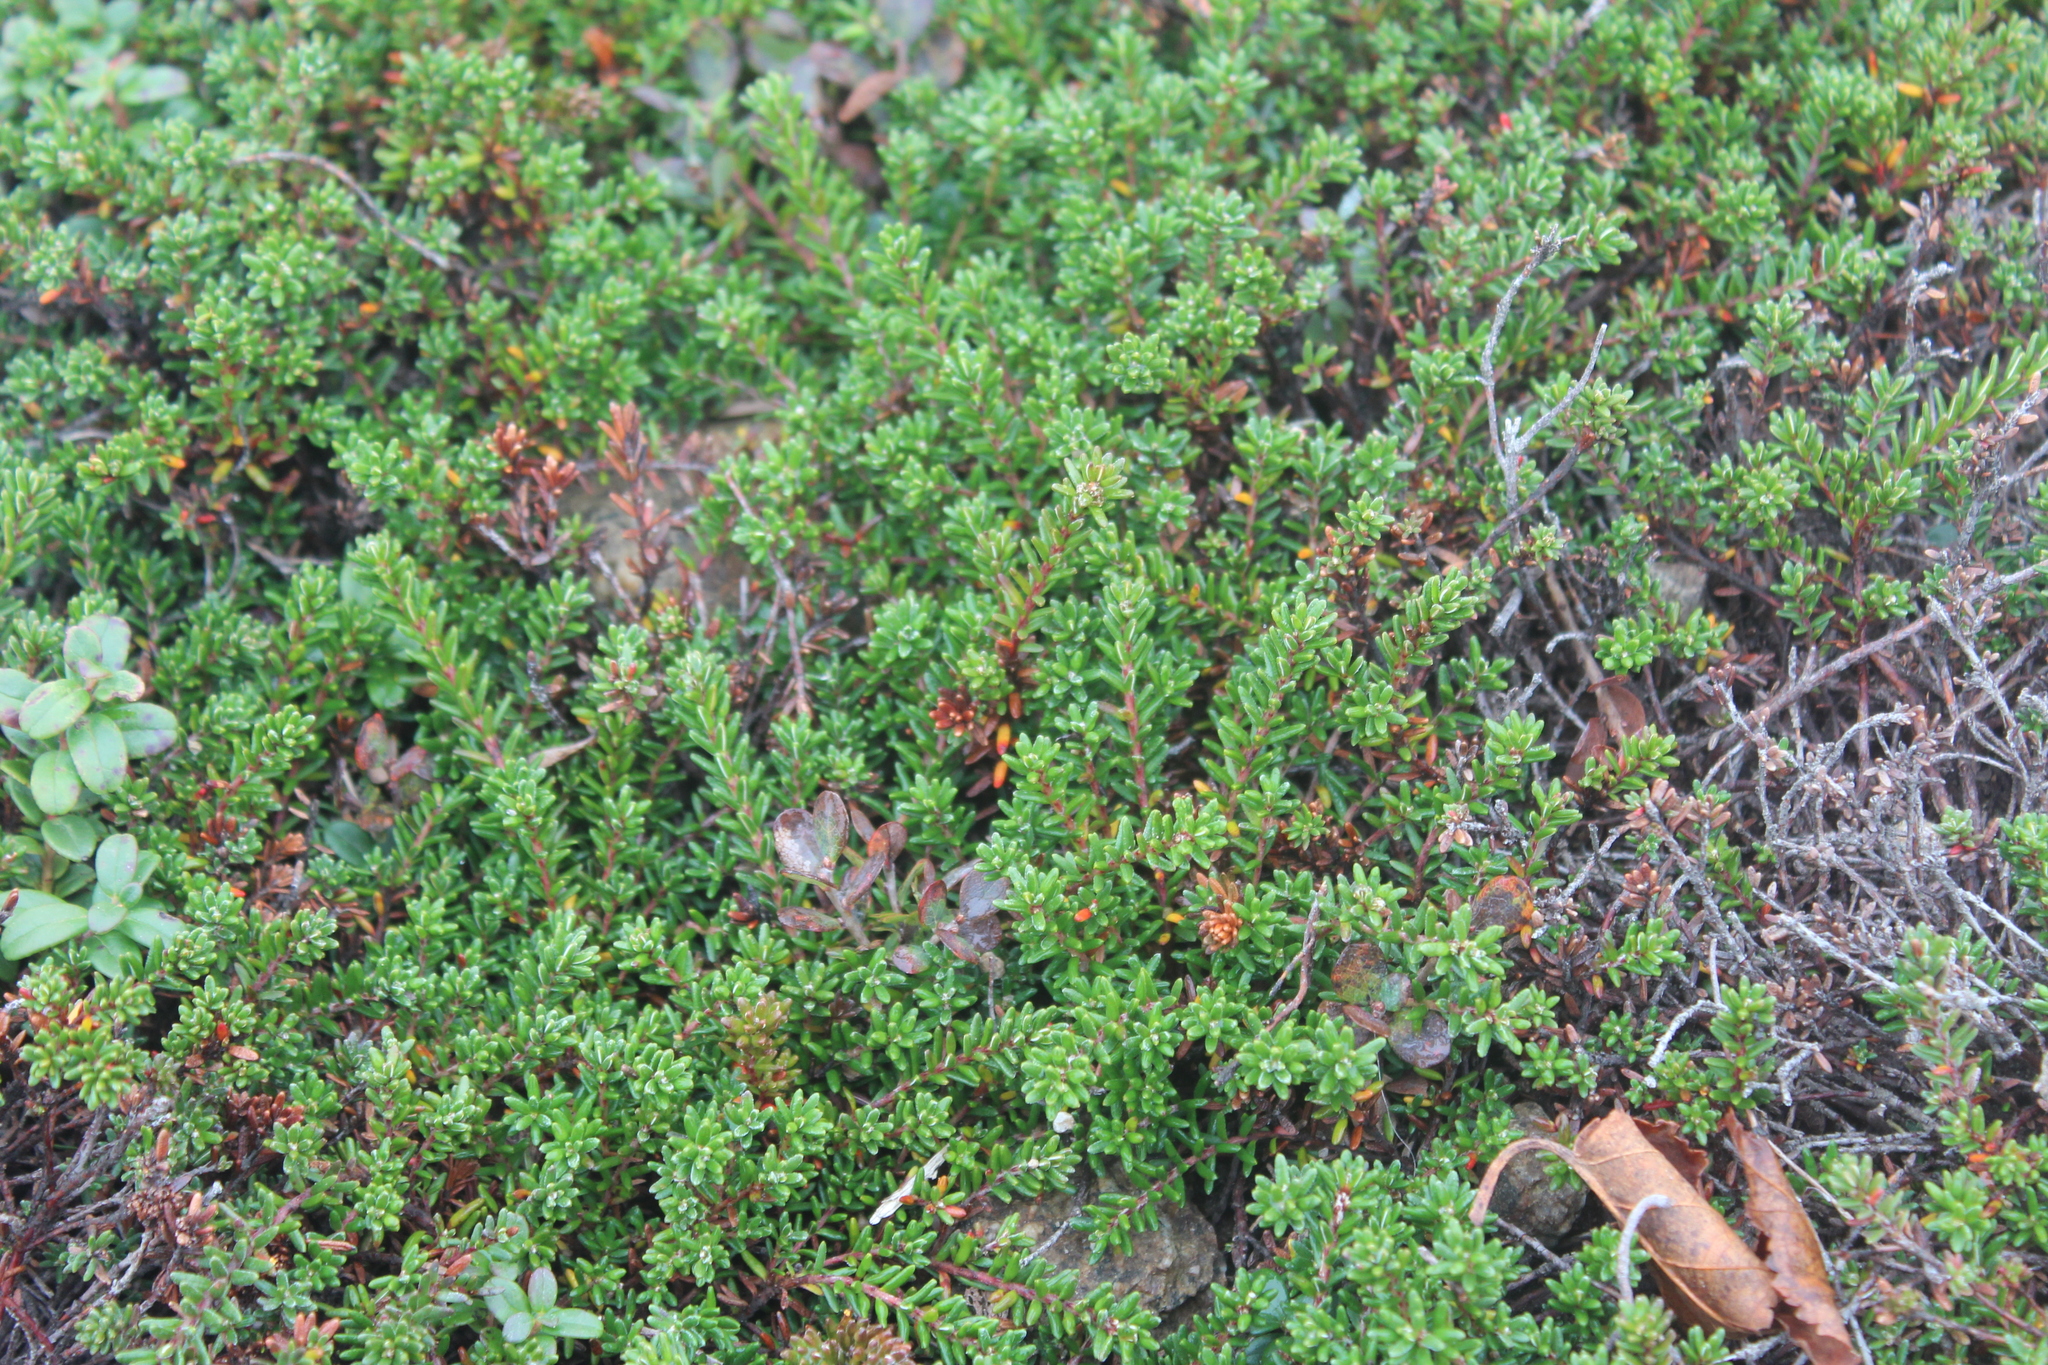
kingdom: Plantae
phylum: Tracheophyta
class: Magnoliopsida
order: Ericales
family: Ericaceae
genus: Empetrum
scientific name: Empetrum nigrum
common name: Black crowberry
